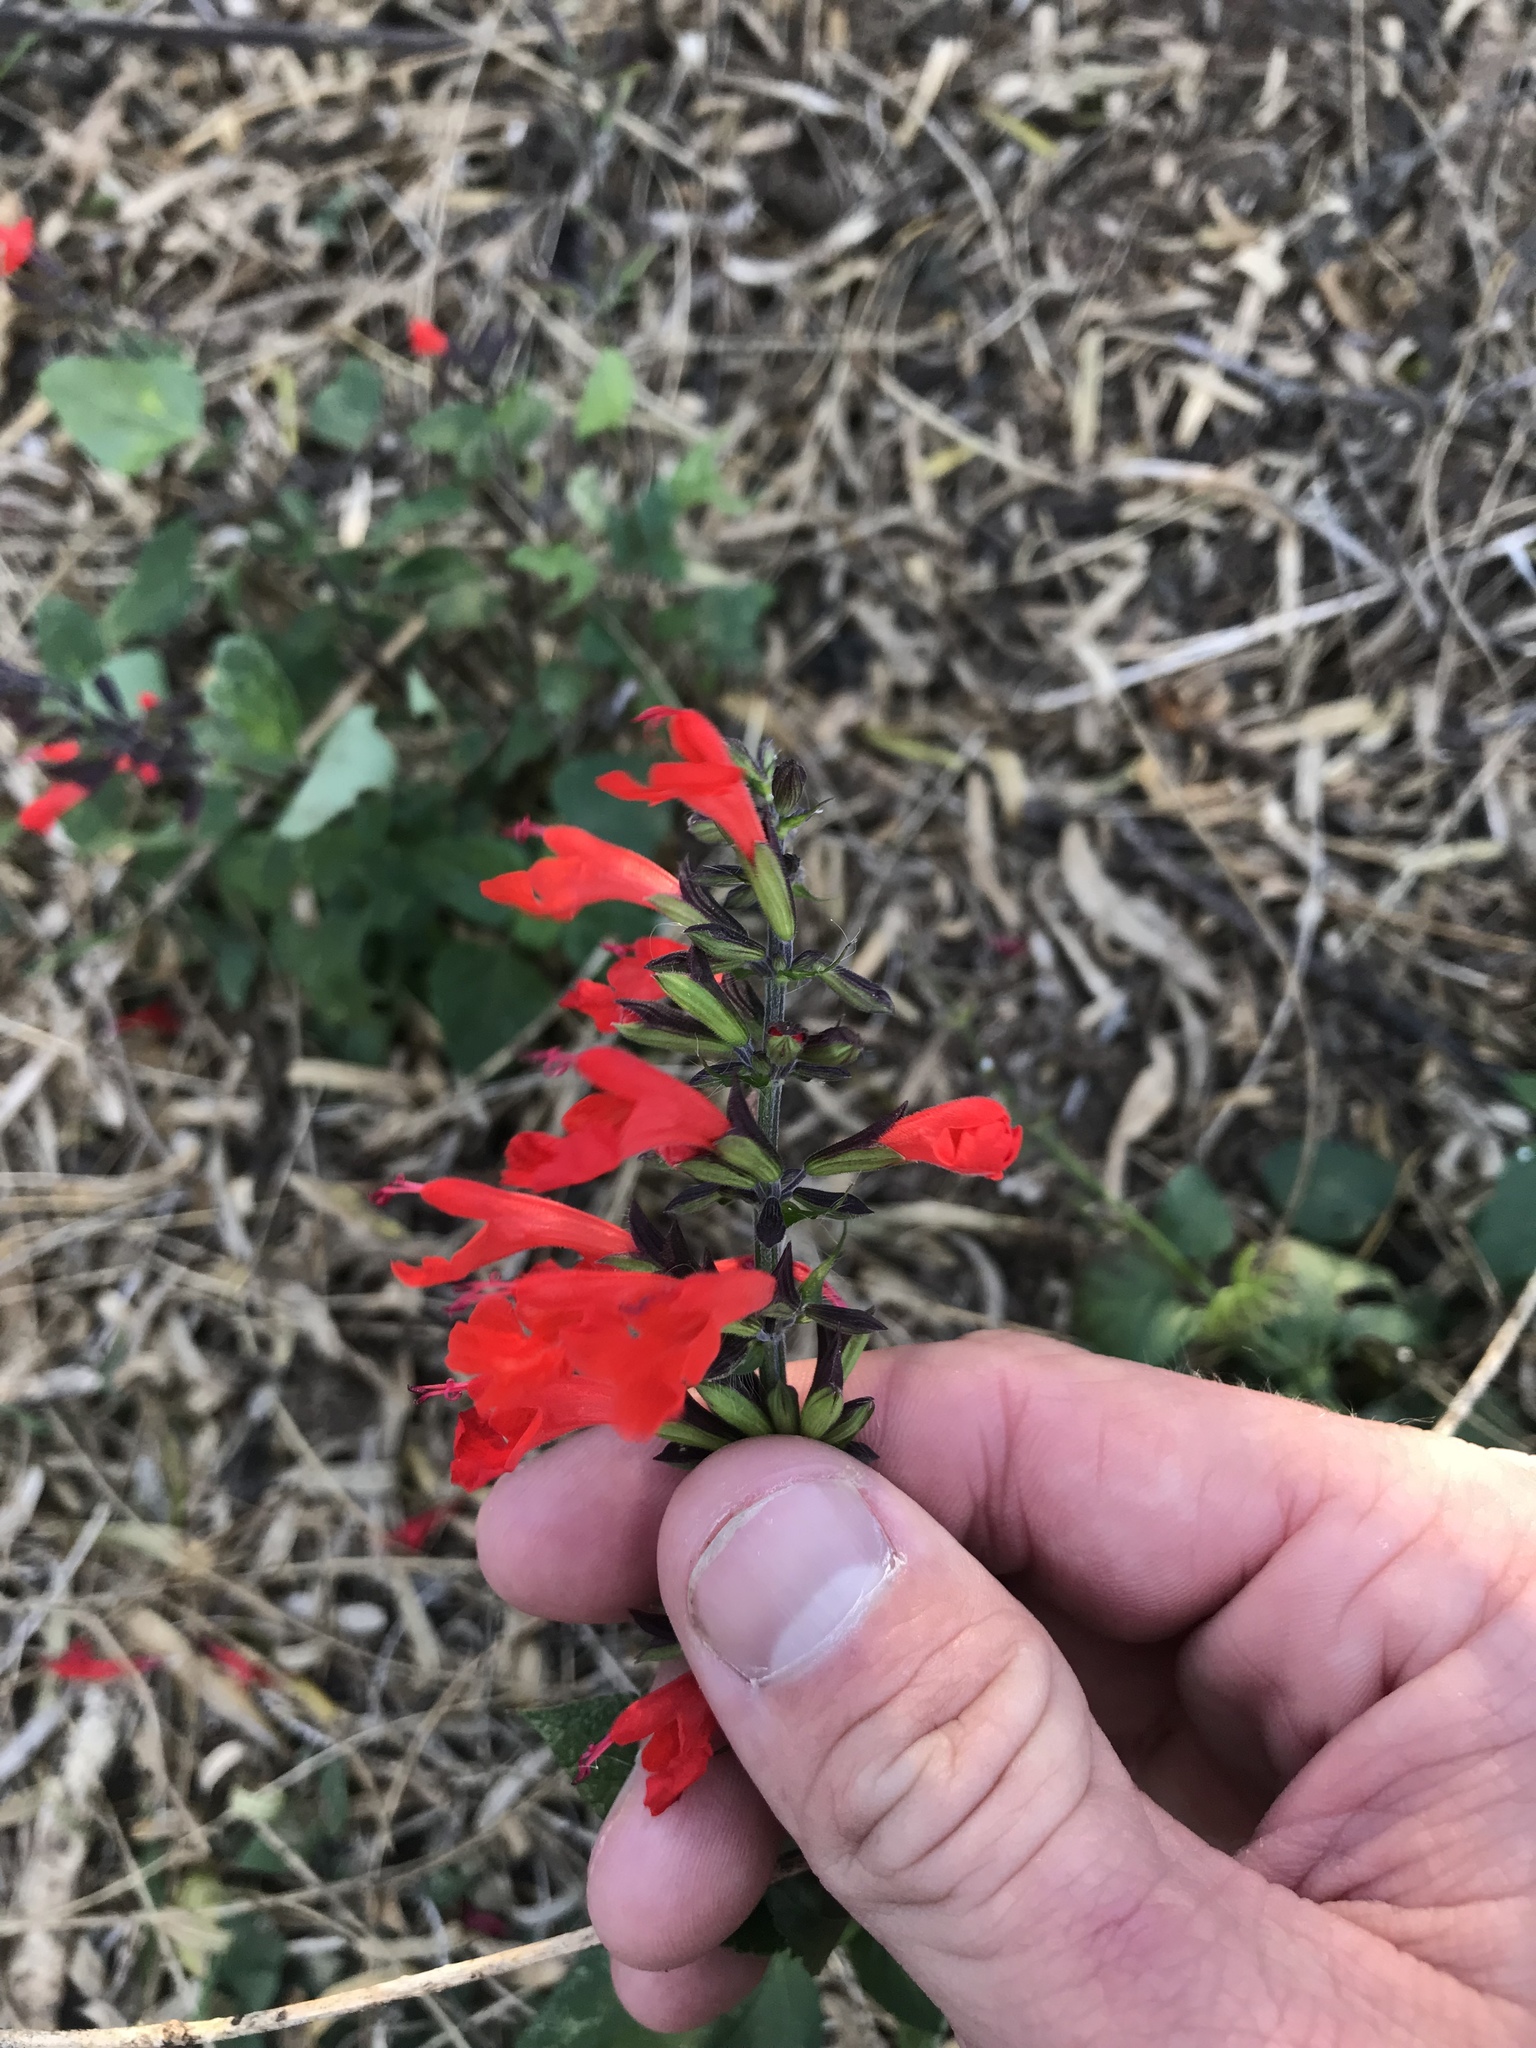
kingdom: Plantae
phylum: Tracheophyta
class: Magnoliopsida
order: Lamiales
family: Lamiaceae
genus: Salvia
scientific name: Salvia coccinea
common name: Blood sage
